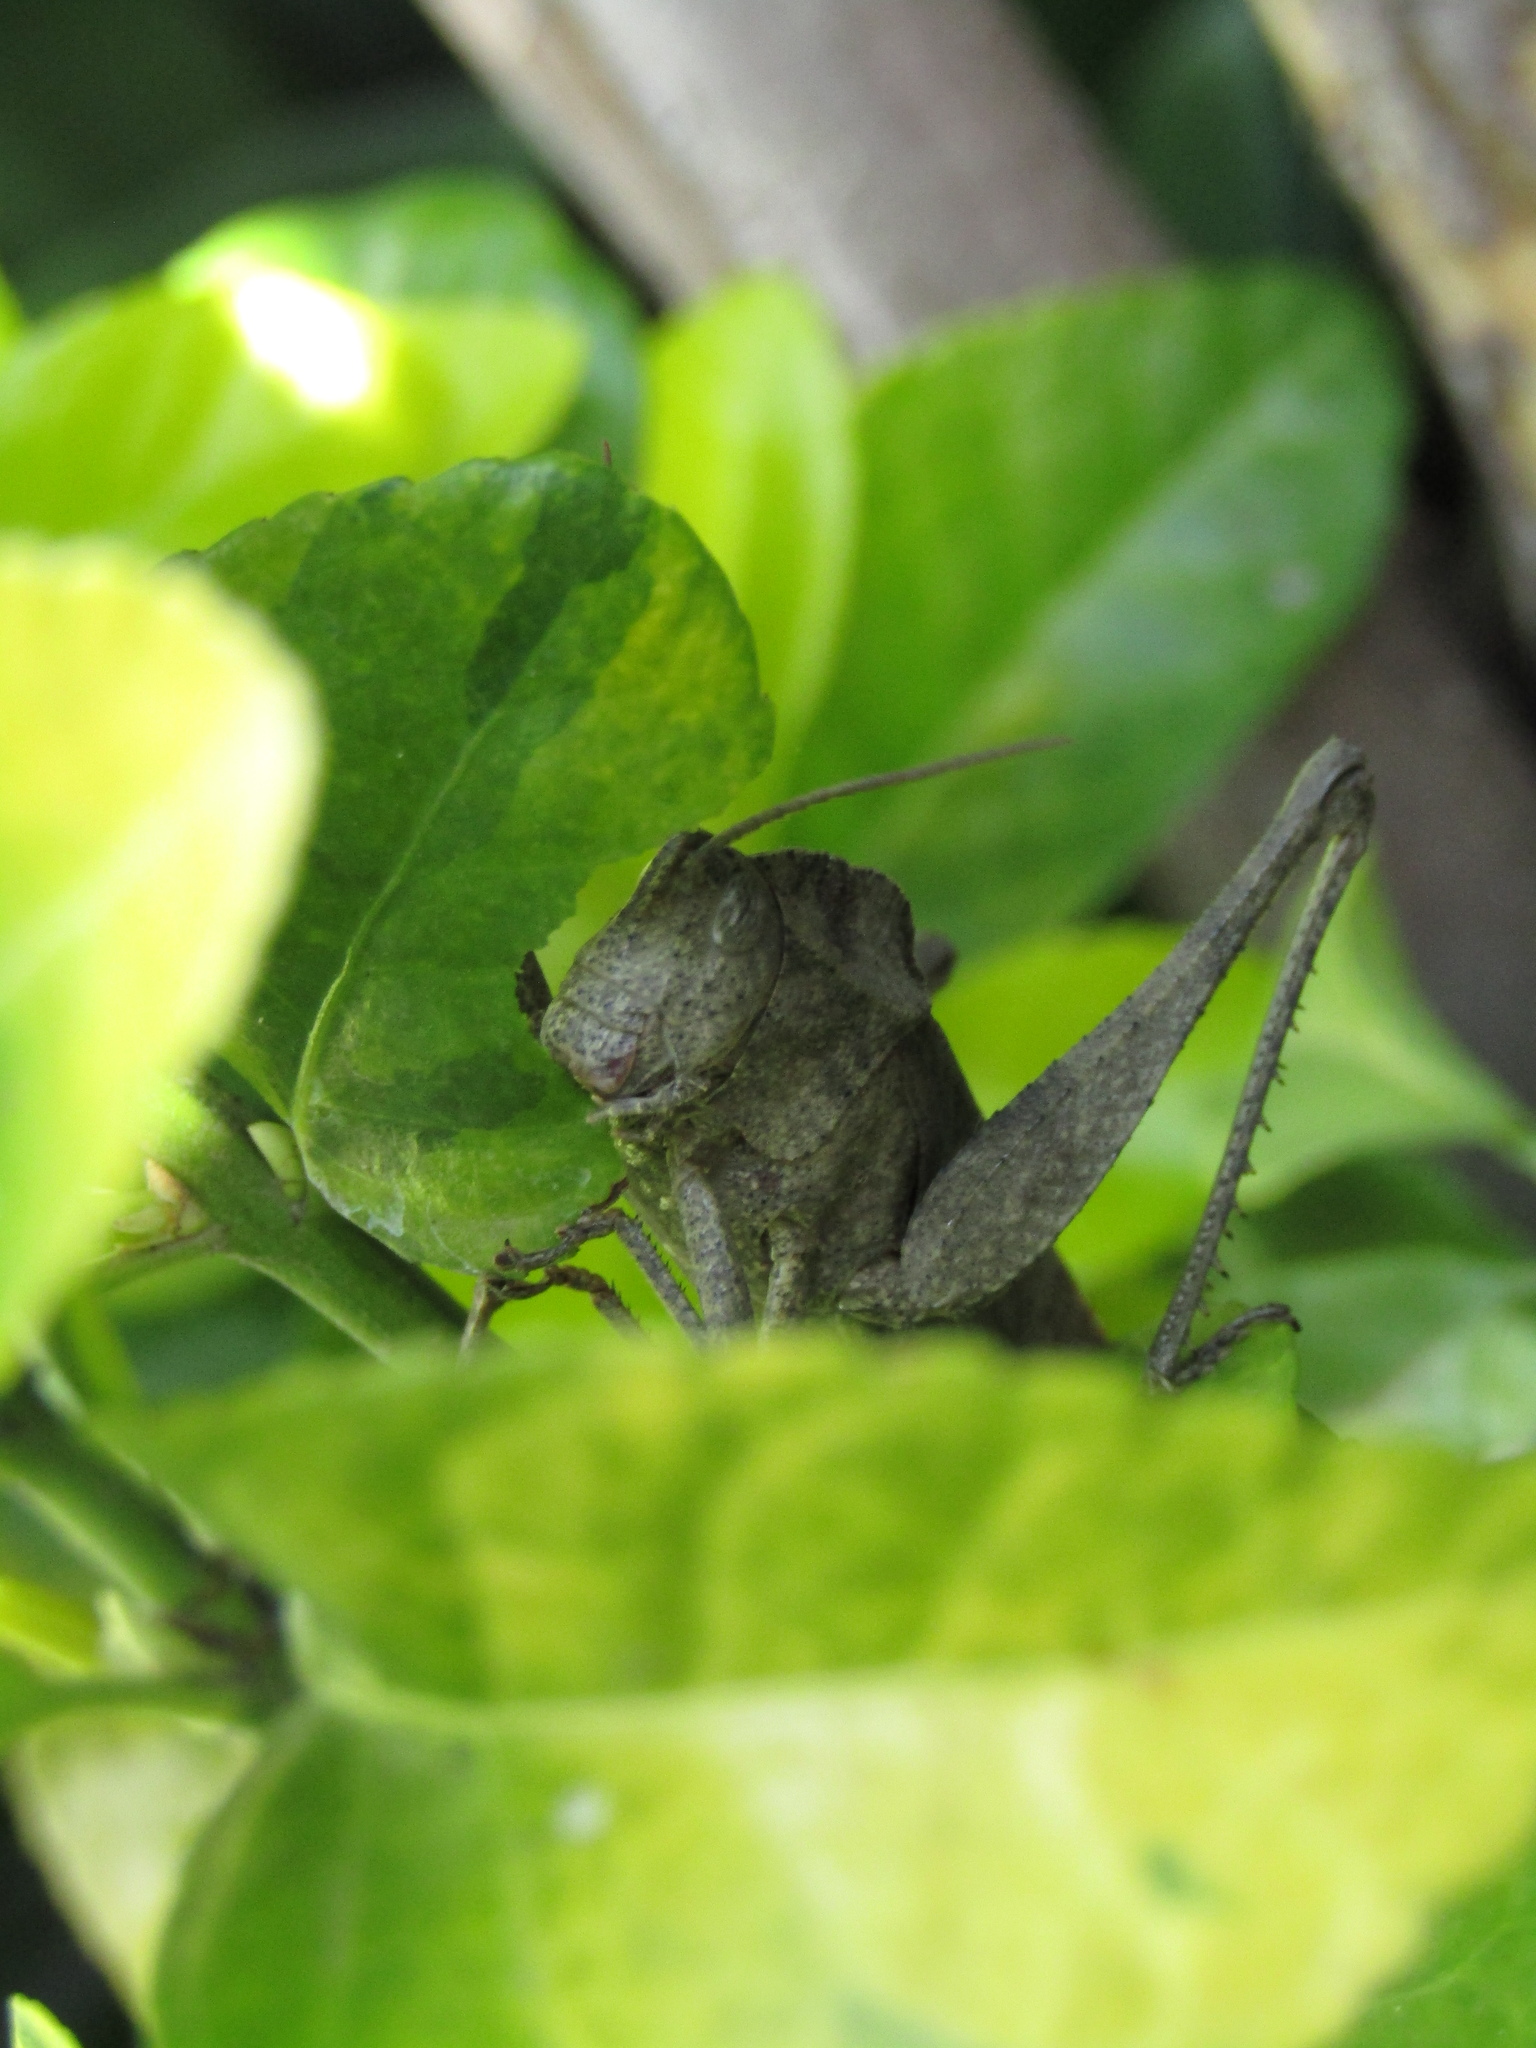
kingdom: Animalia
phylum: Arthropoda
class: Insecta
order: Orthoptera
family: Romaleidae
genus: Xyleus
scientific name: Xyleus discoideus
